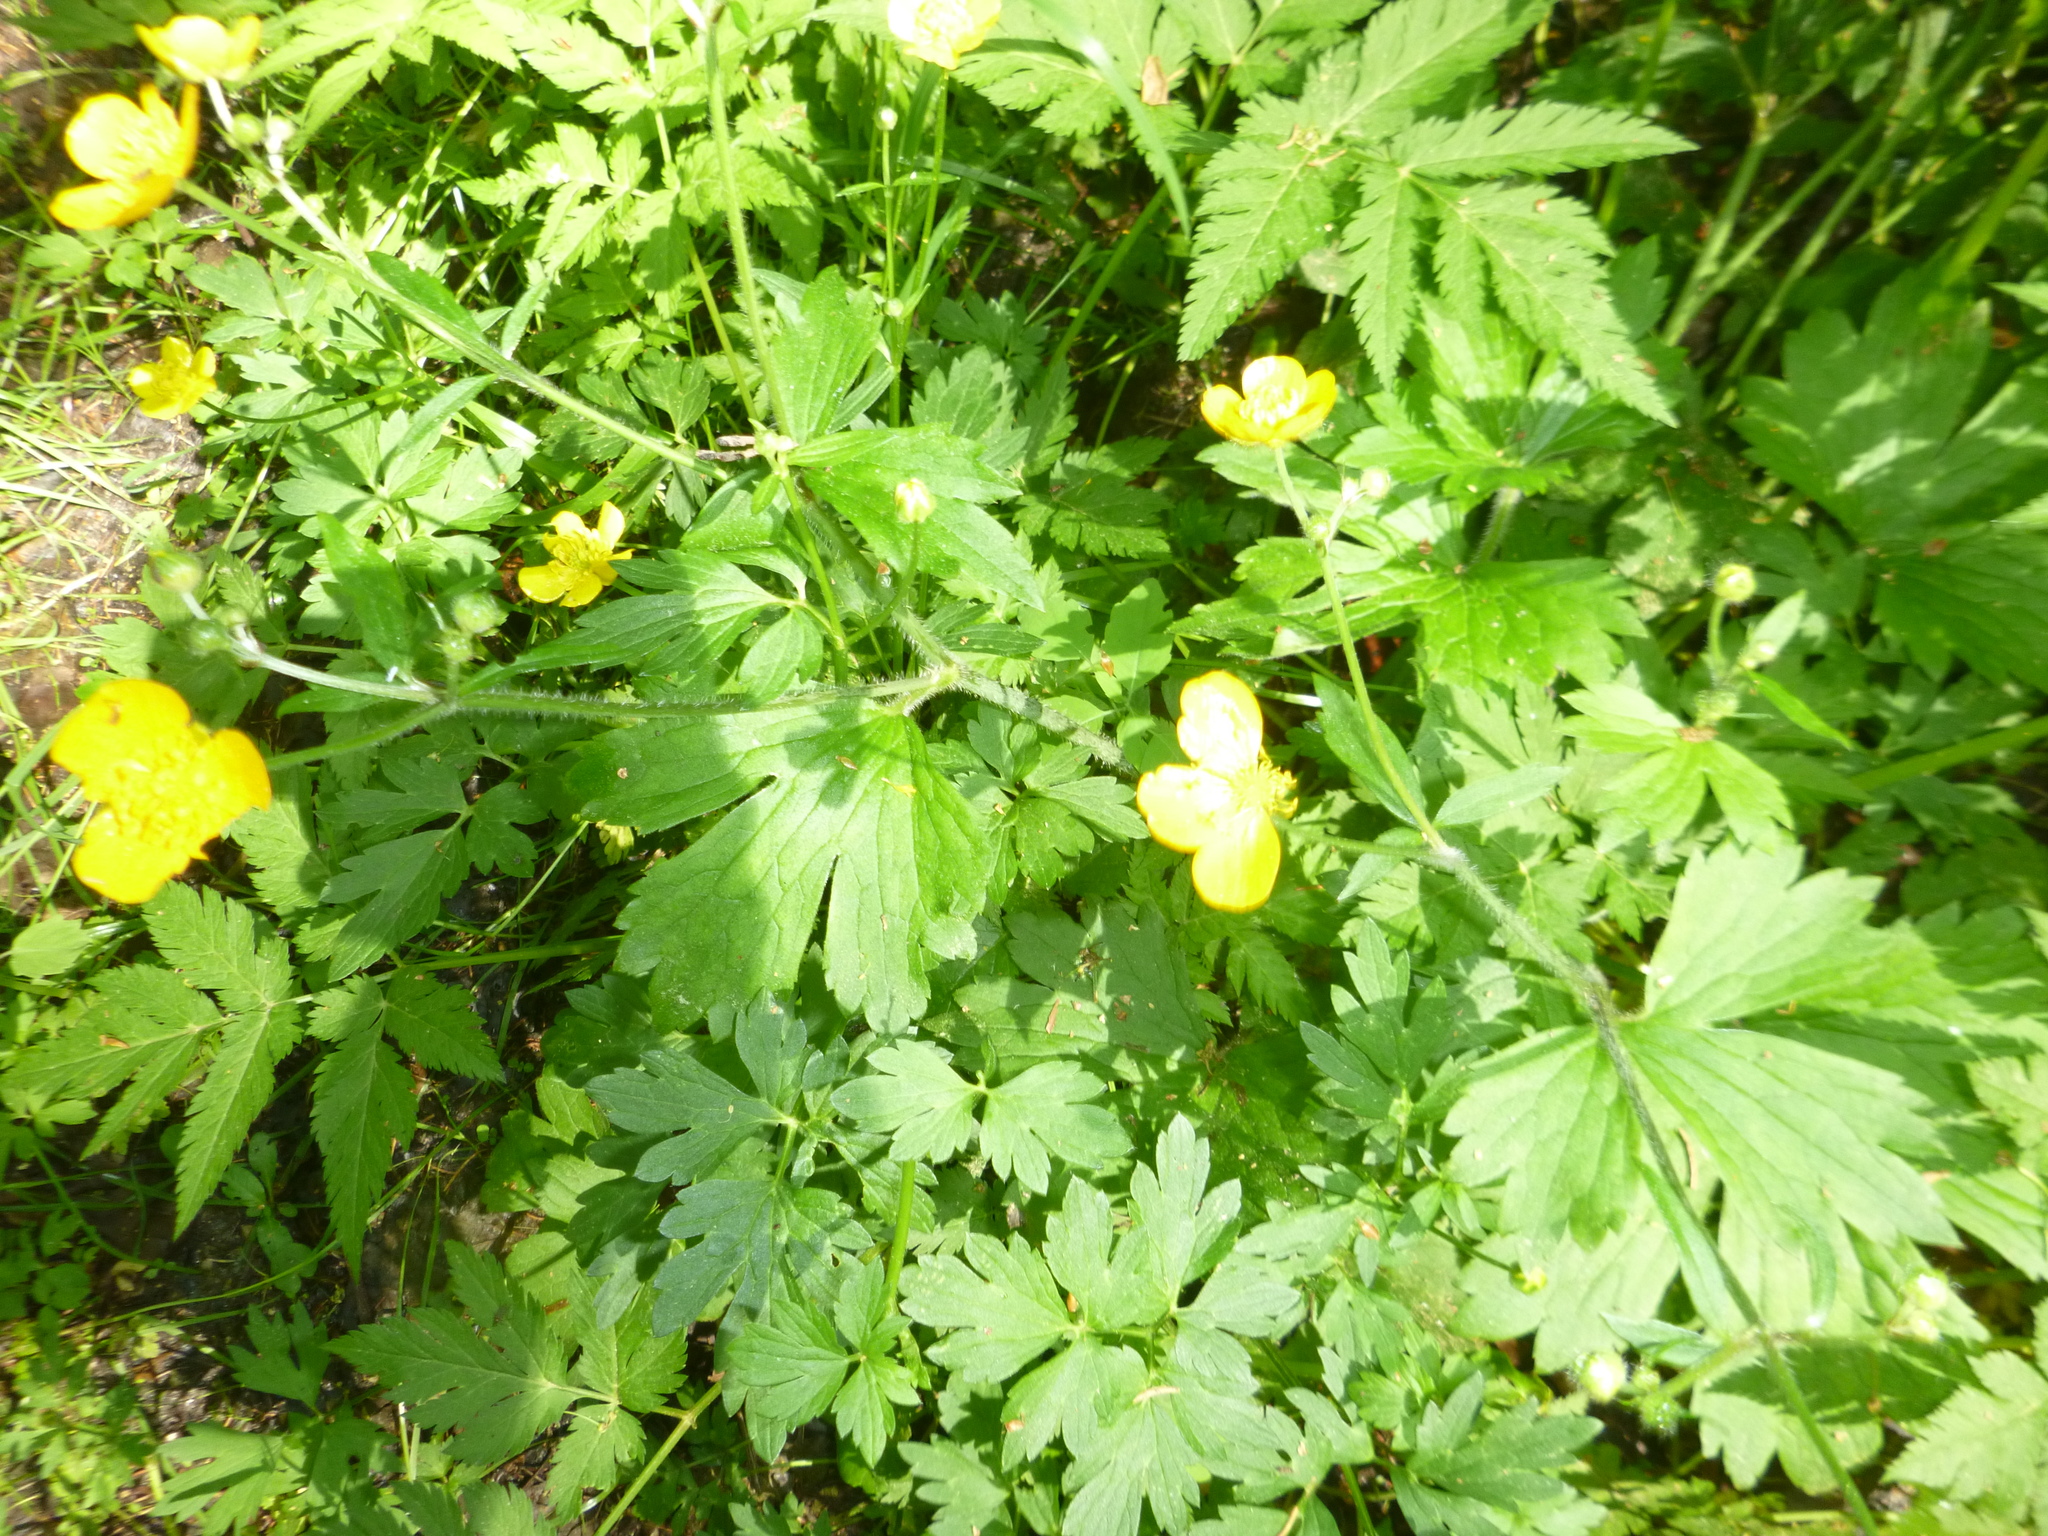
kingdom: Plantae
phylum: Tracheophyta
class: Magnoliopsida
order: Ranunculales
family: Ranunculaceae
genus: Ranunculus
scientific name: Ranunculus lanuginosus
